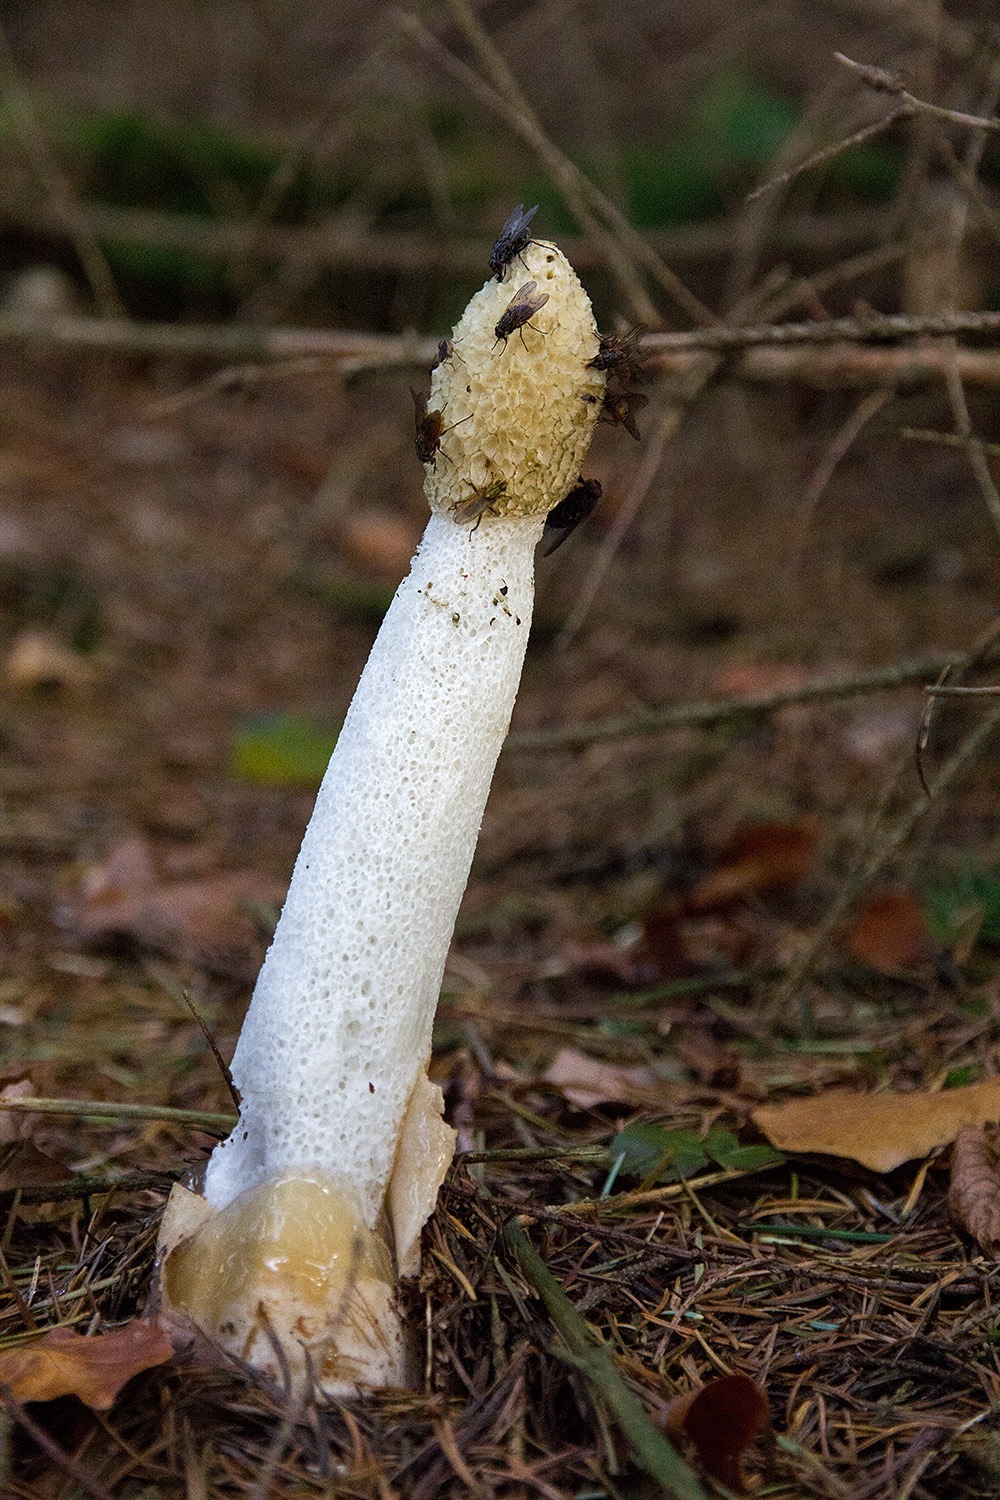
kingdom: Fungi
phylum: Basidiomycota
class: Agaricomycetes
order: Phallales
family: Phallaceae
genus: Phallus
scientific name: Phallus impudicus
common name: Common stinkhorn
